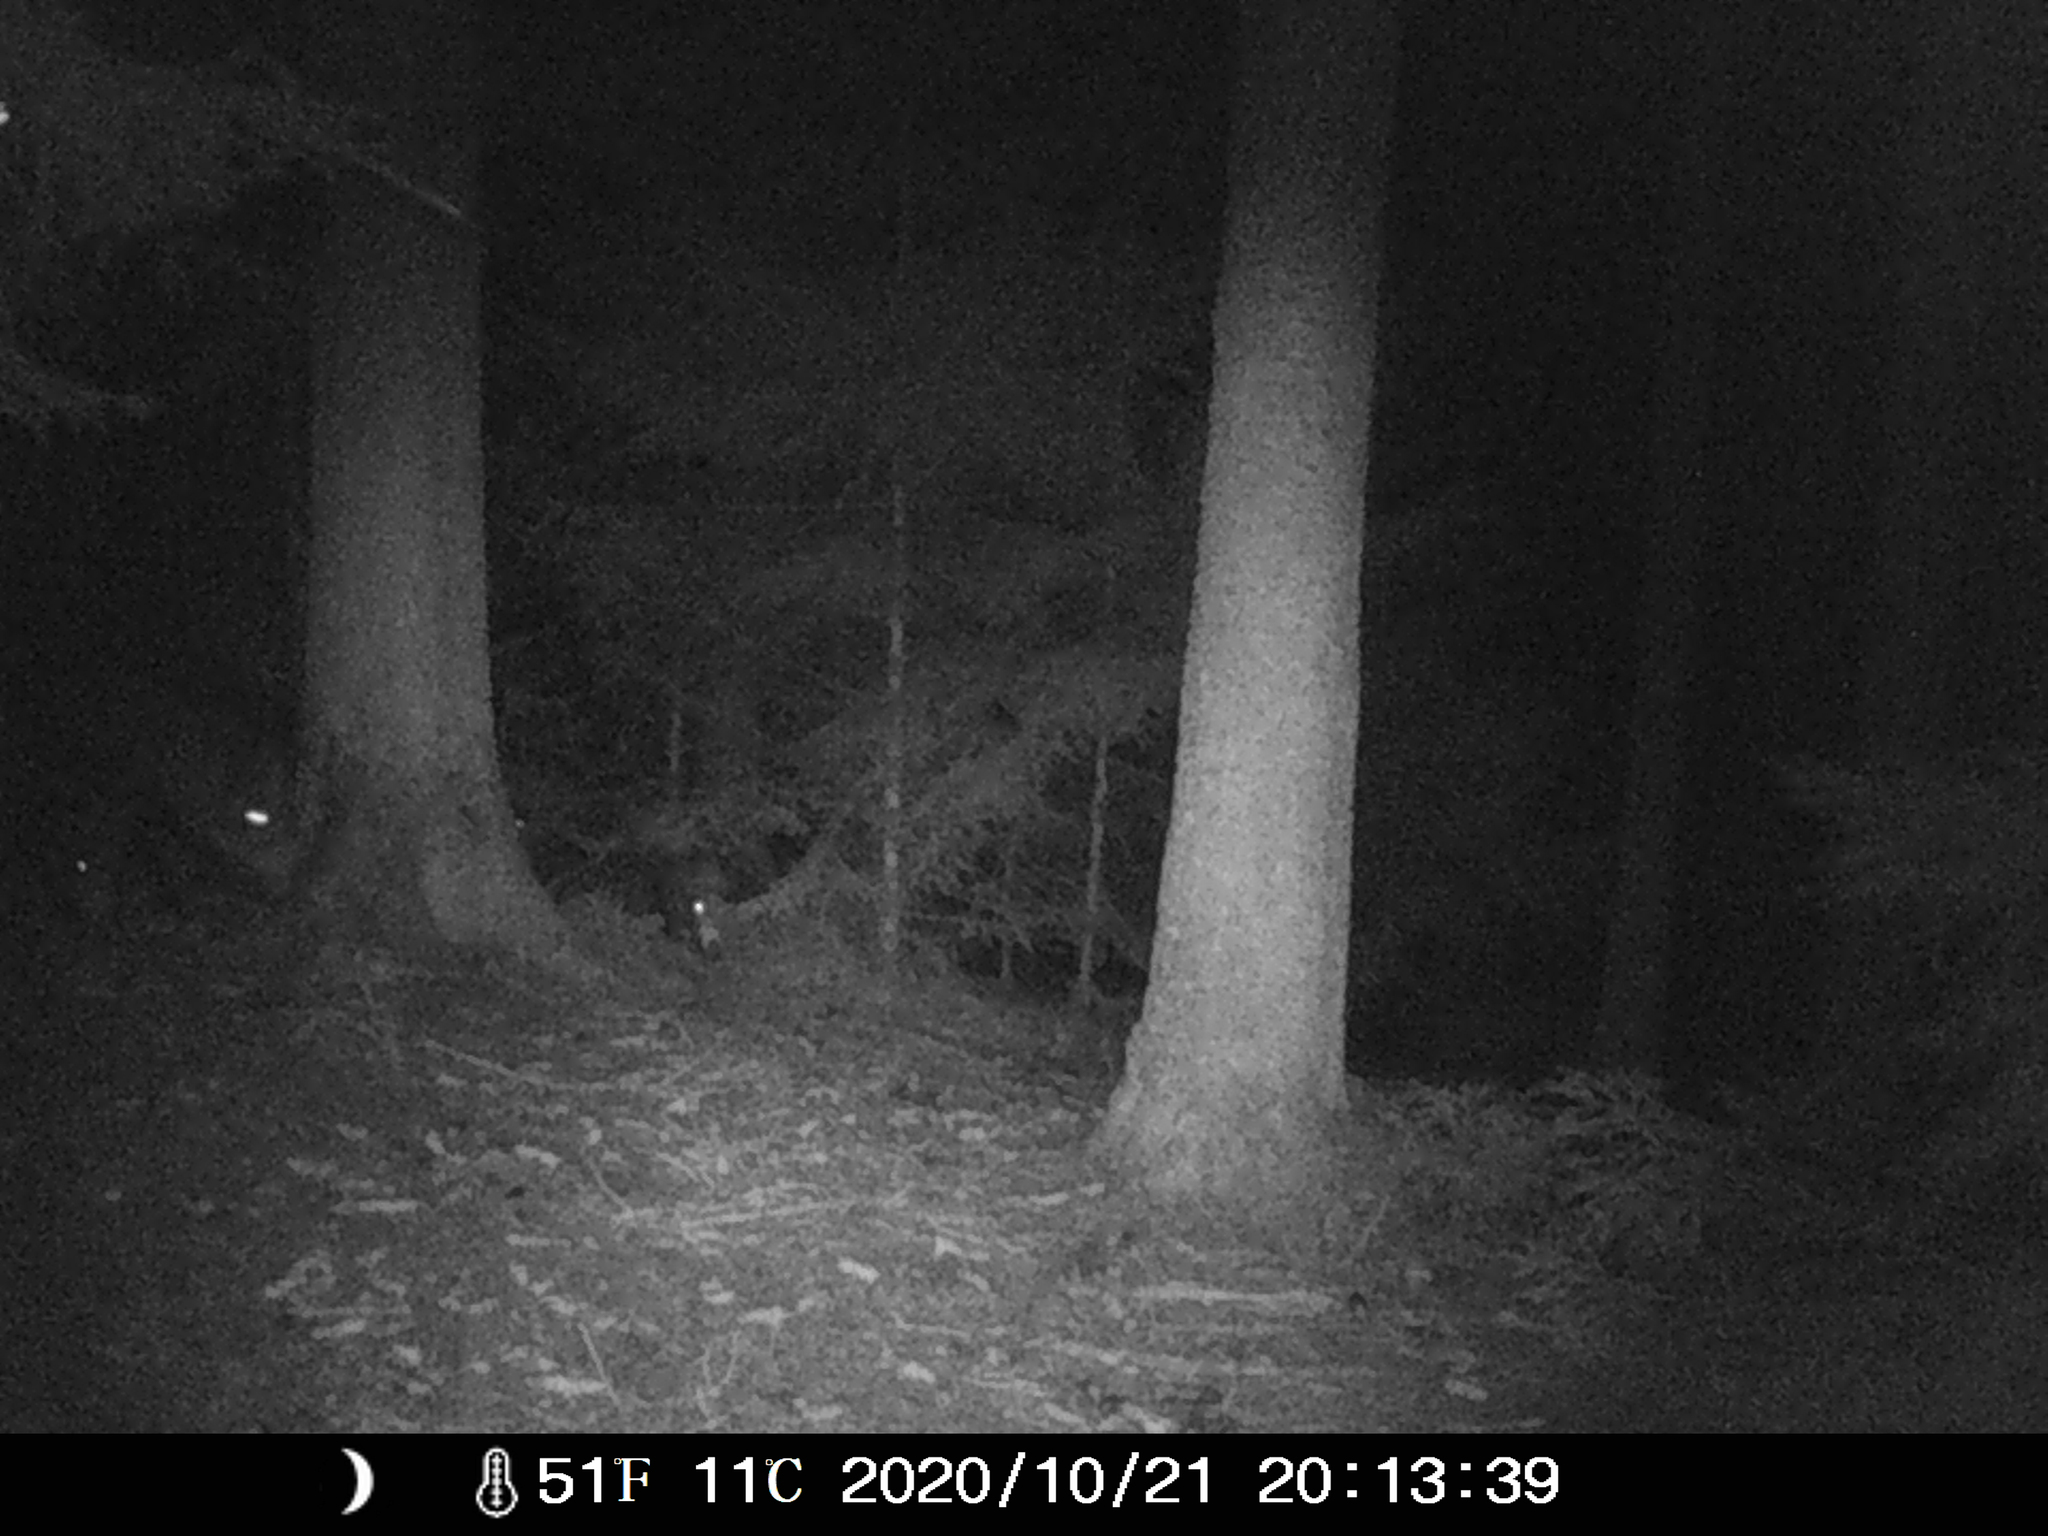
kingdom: Animalia
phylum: Chordata
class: Mammalia
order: Artiodactyla
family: Suidae
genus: Sus
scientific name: Sus scrofa
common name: Wild boar
